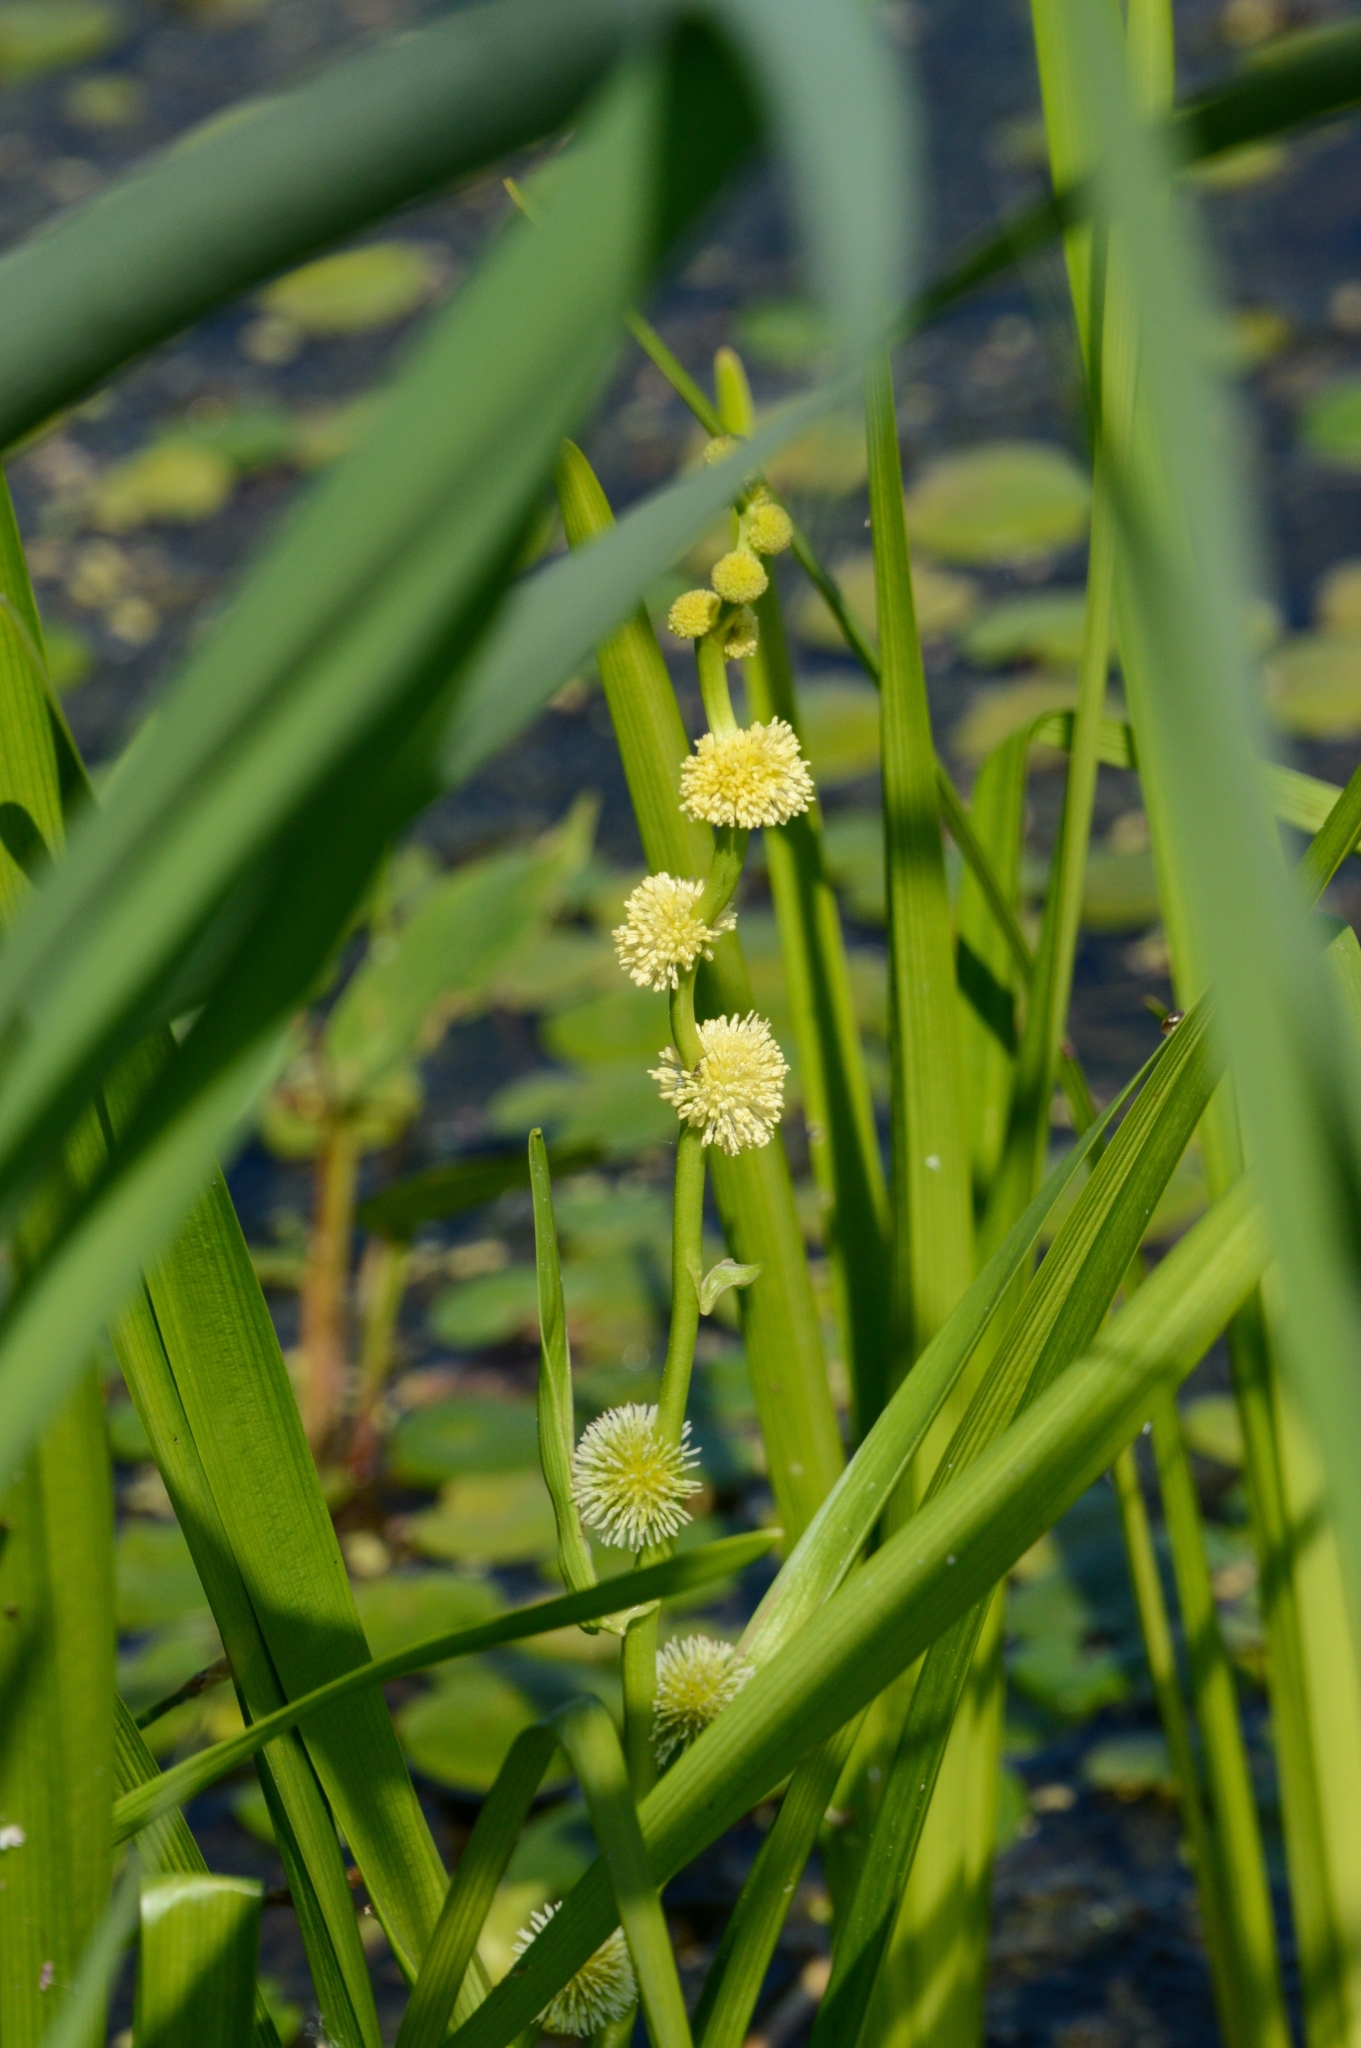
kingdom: Plantae
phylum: Tracheophyta
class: Liliopsida
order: Poales
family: Typhaceae
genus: Sparganium
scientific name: Sparganium emersum
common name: Unbranched bur-reed
